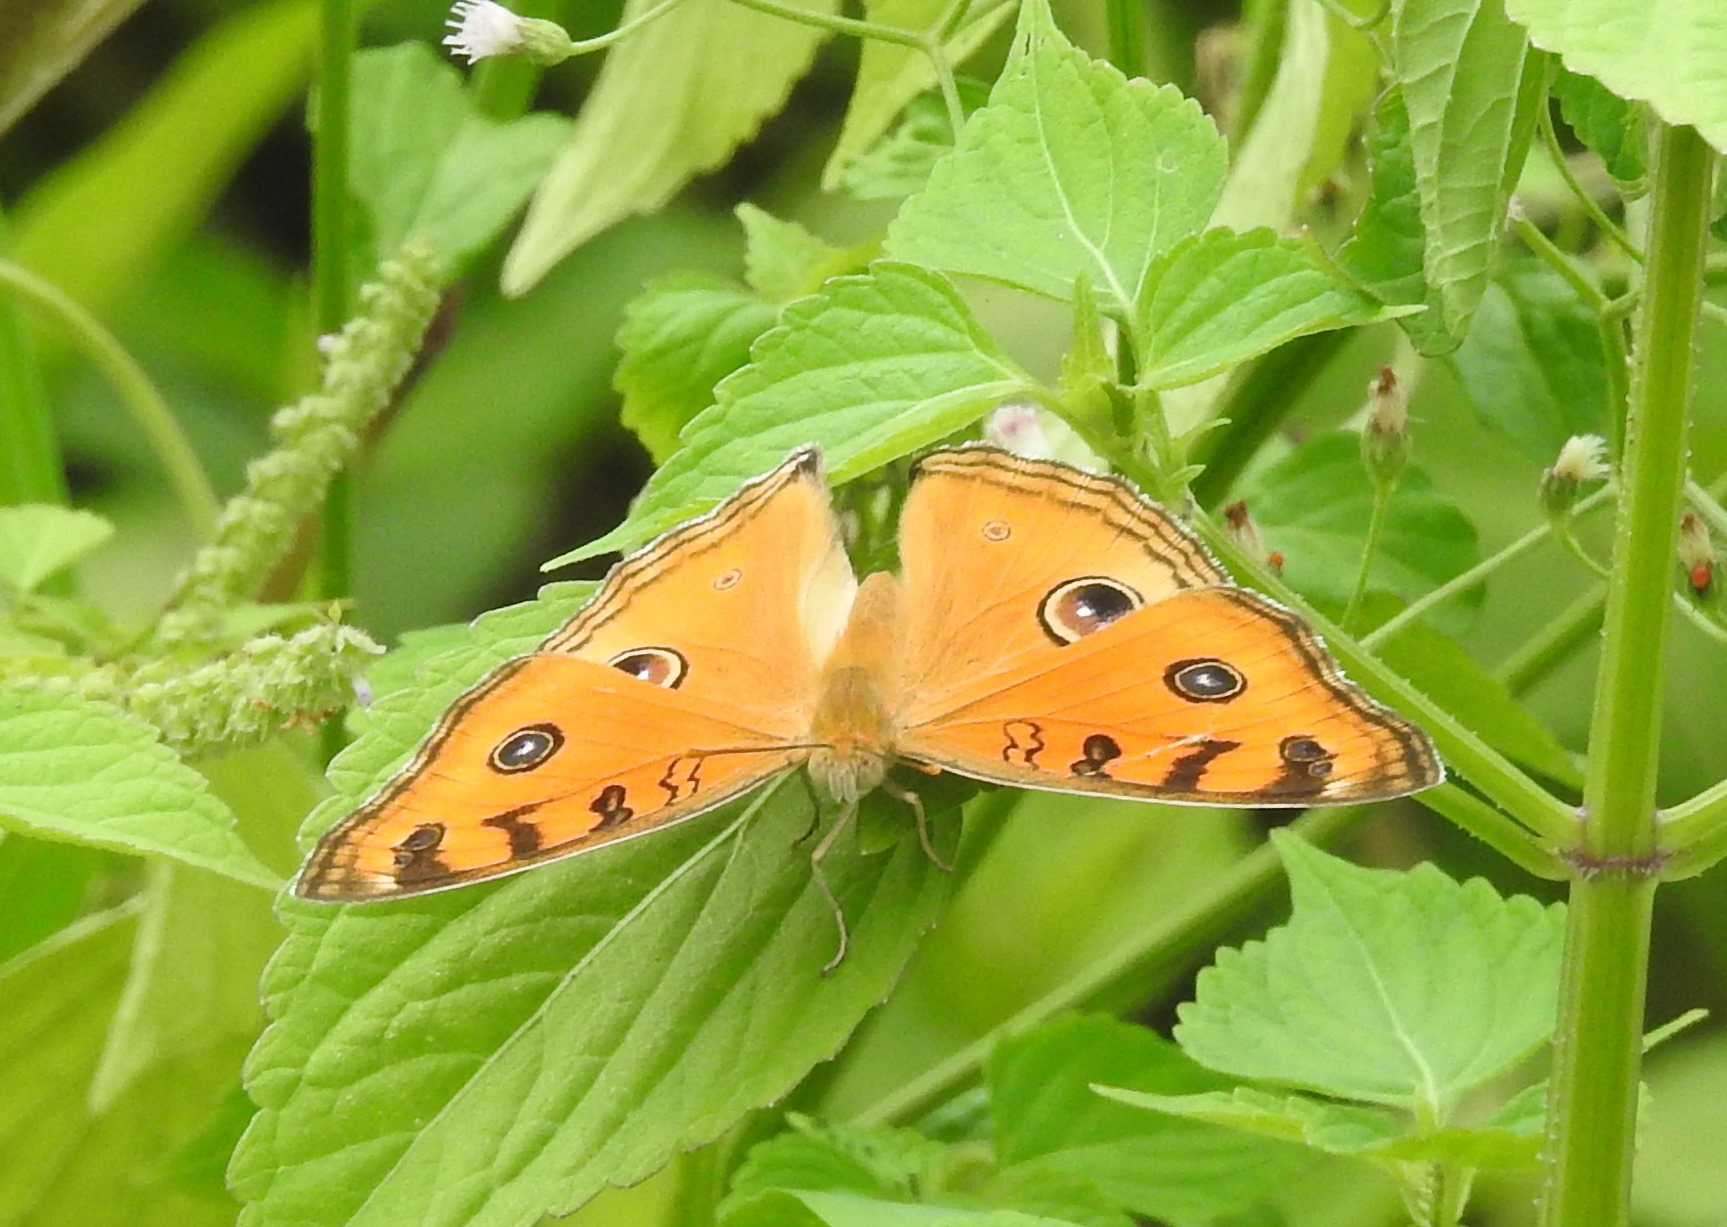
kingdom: Animalia
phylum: Arthropoda
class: Insecta
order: Lepidoptera
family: Nymphalidae
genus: Junonia
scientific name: Junonia almana
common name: Peacock pansy
